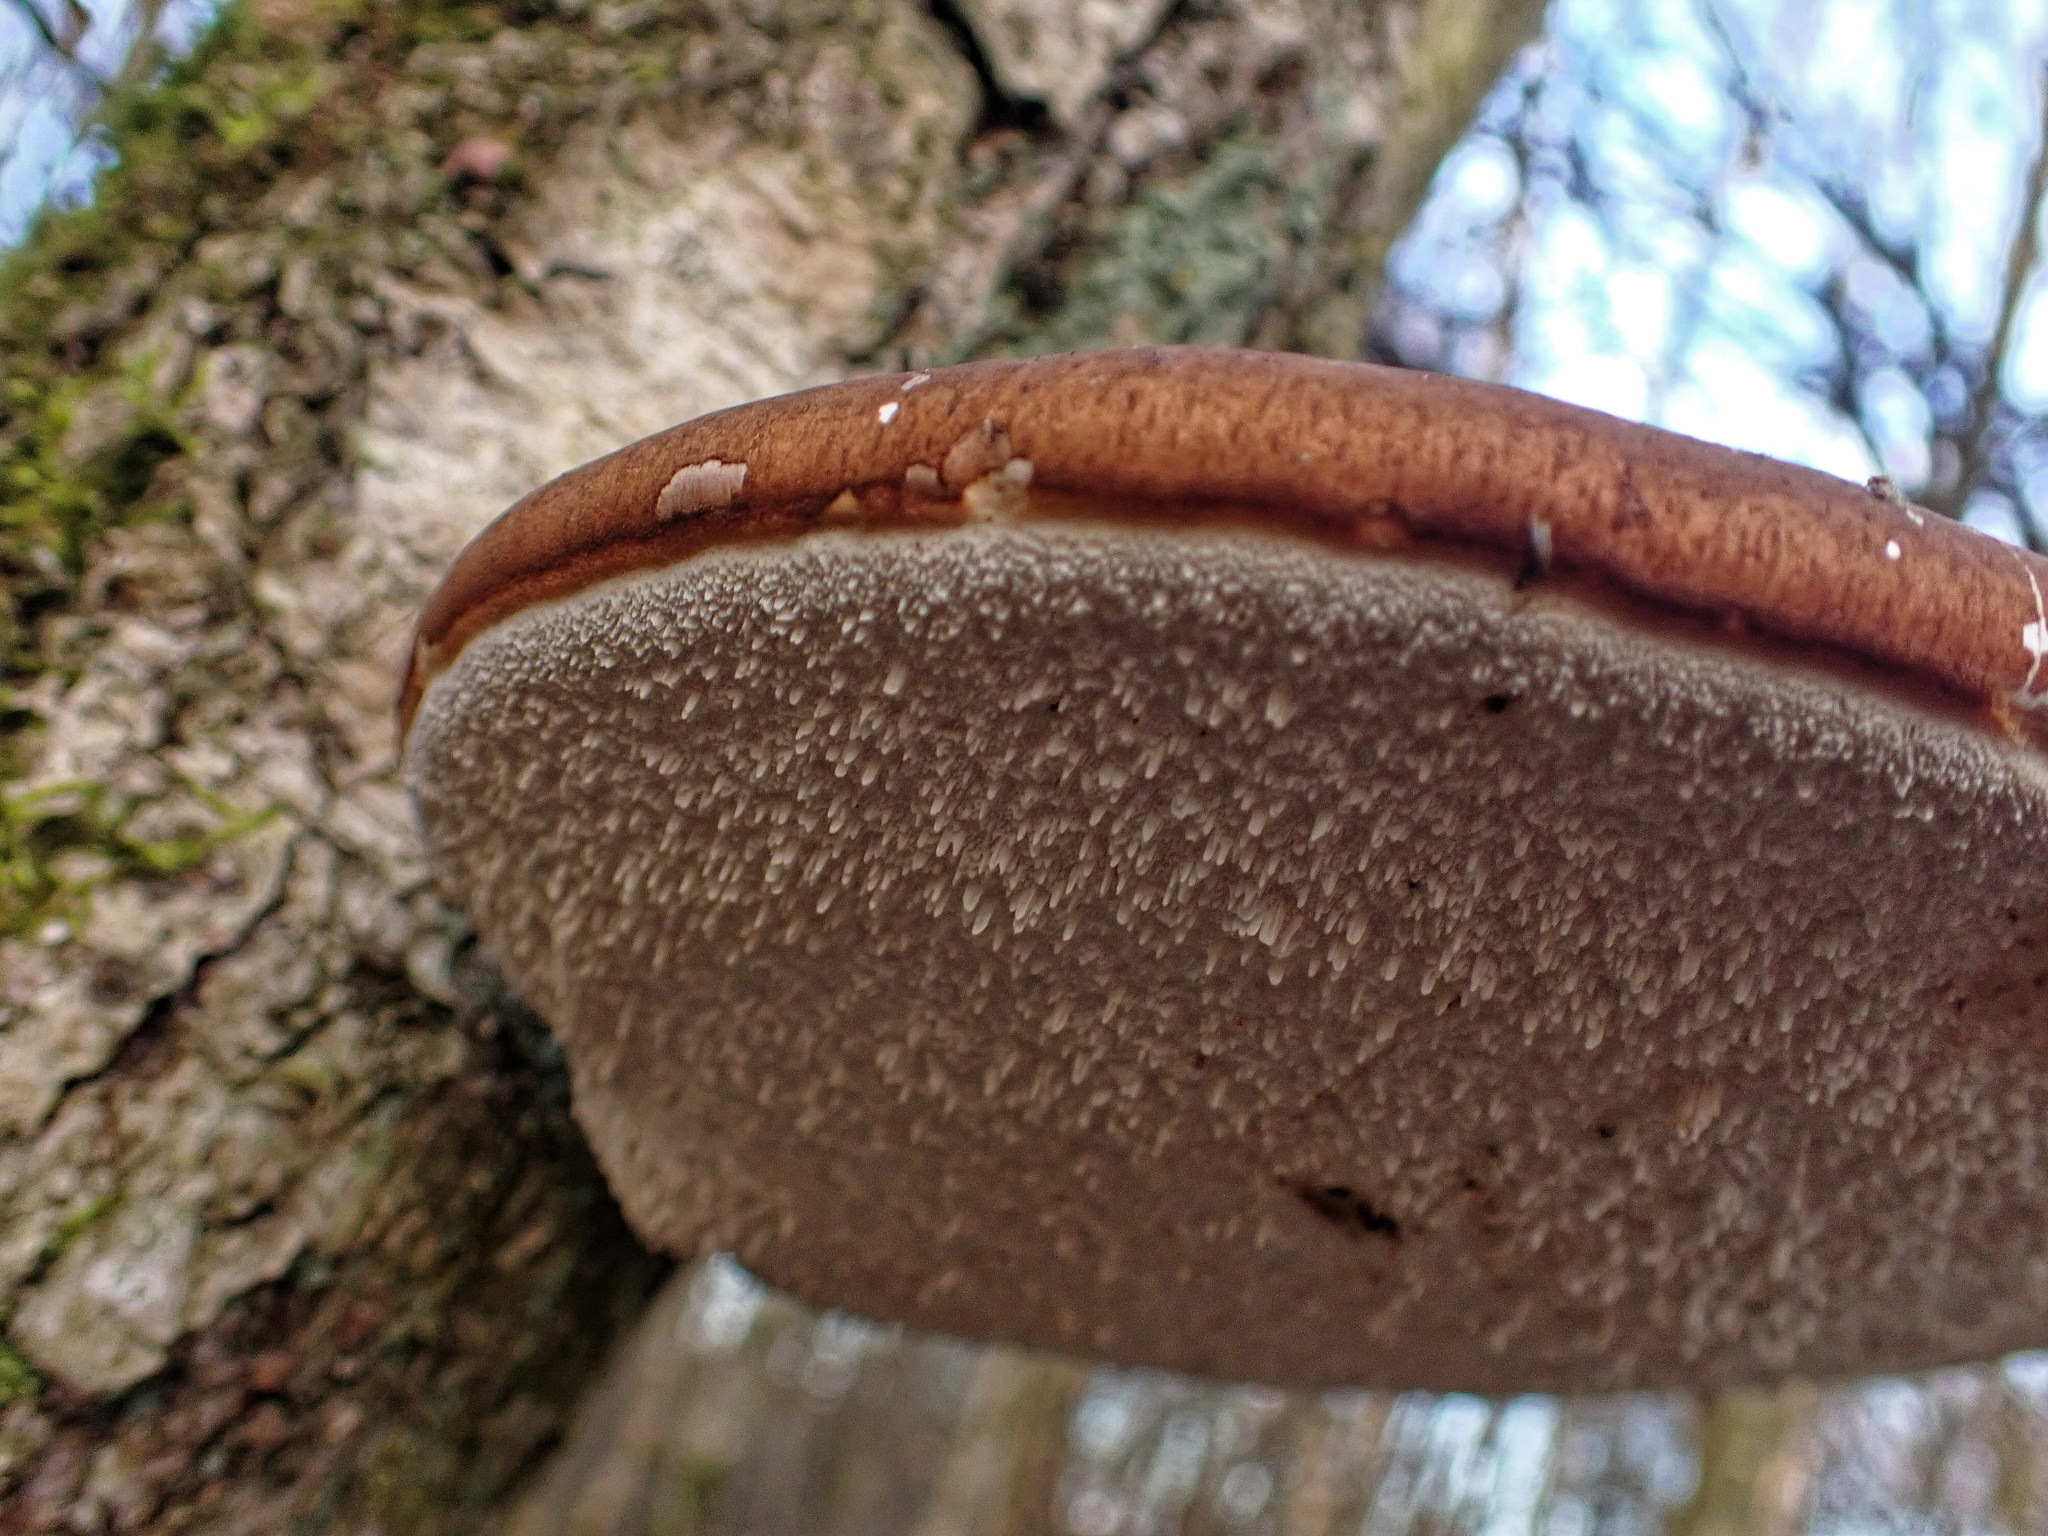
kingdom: Fungi
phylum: Basidiomycota
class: Agaricomycetes
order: Polyporales
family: Fomitopsidaceae
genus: Fomitopsis
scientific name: Fomitopsis betulina
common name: Birch polypore
